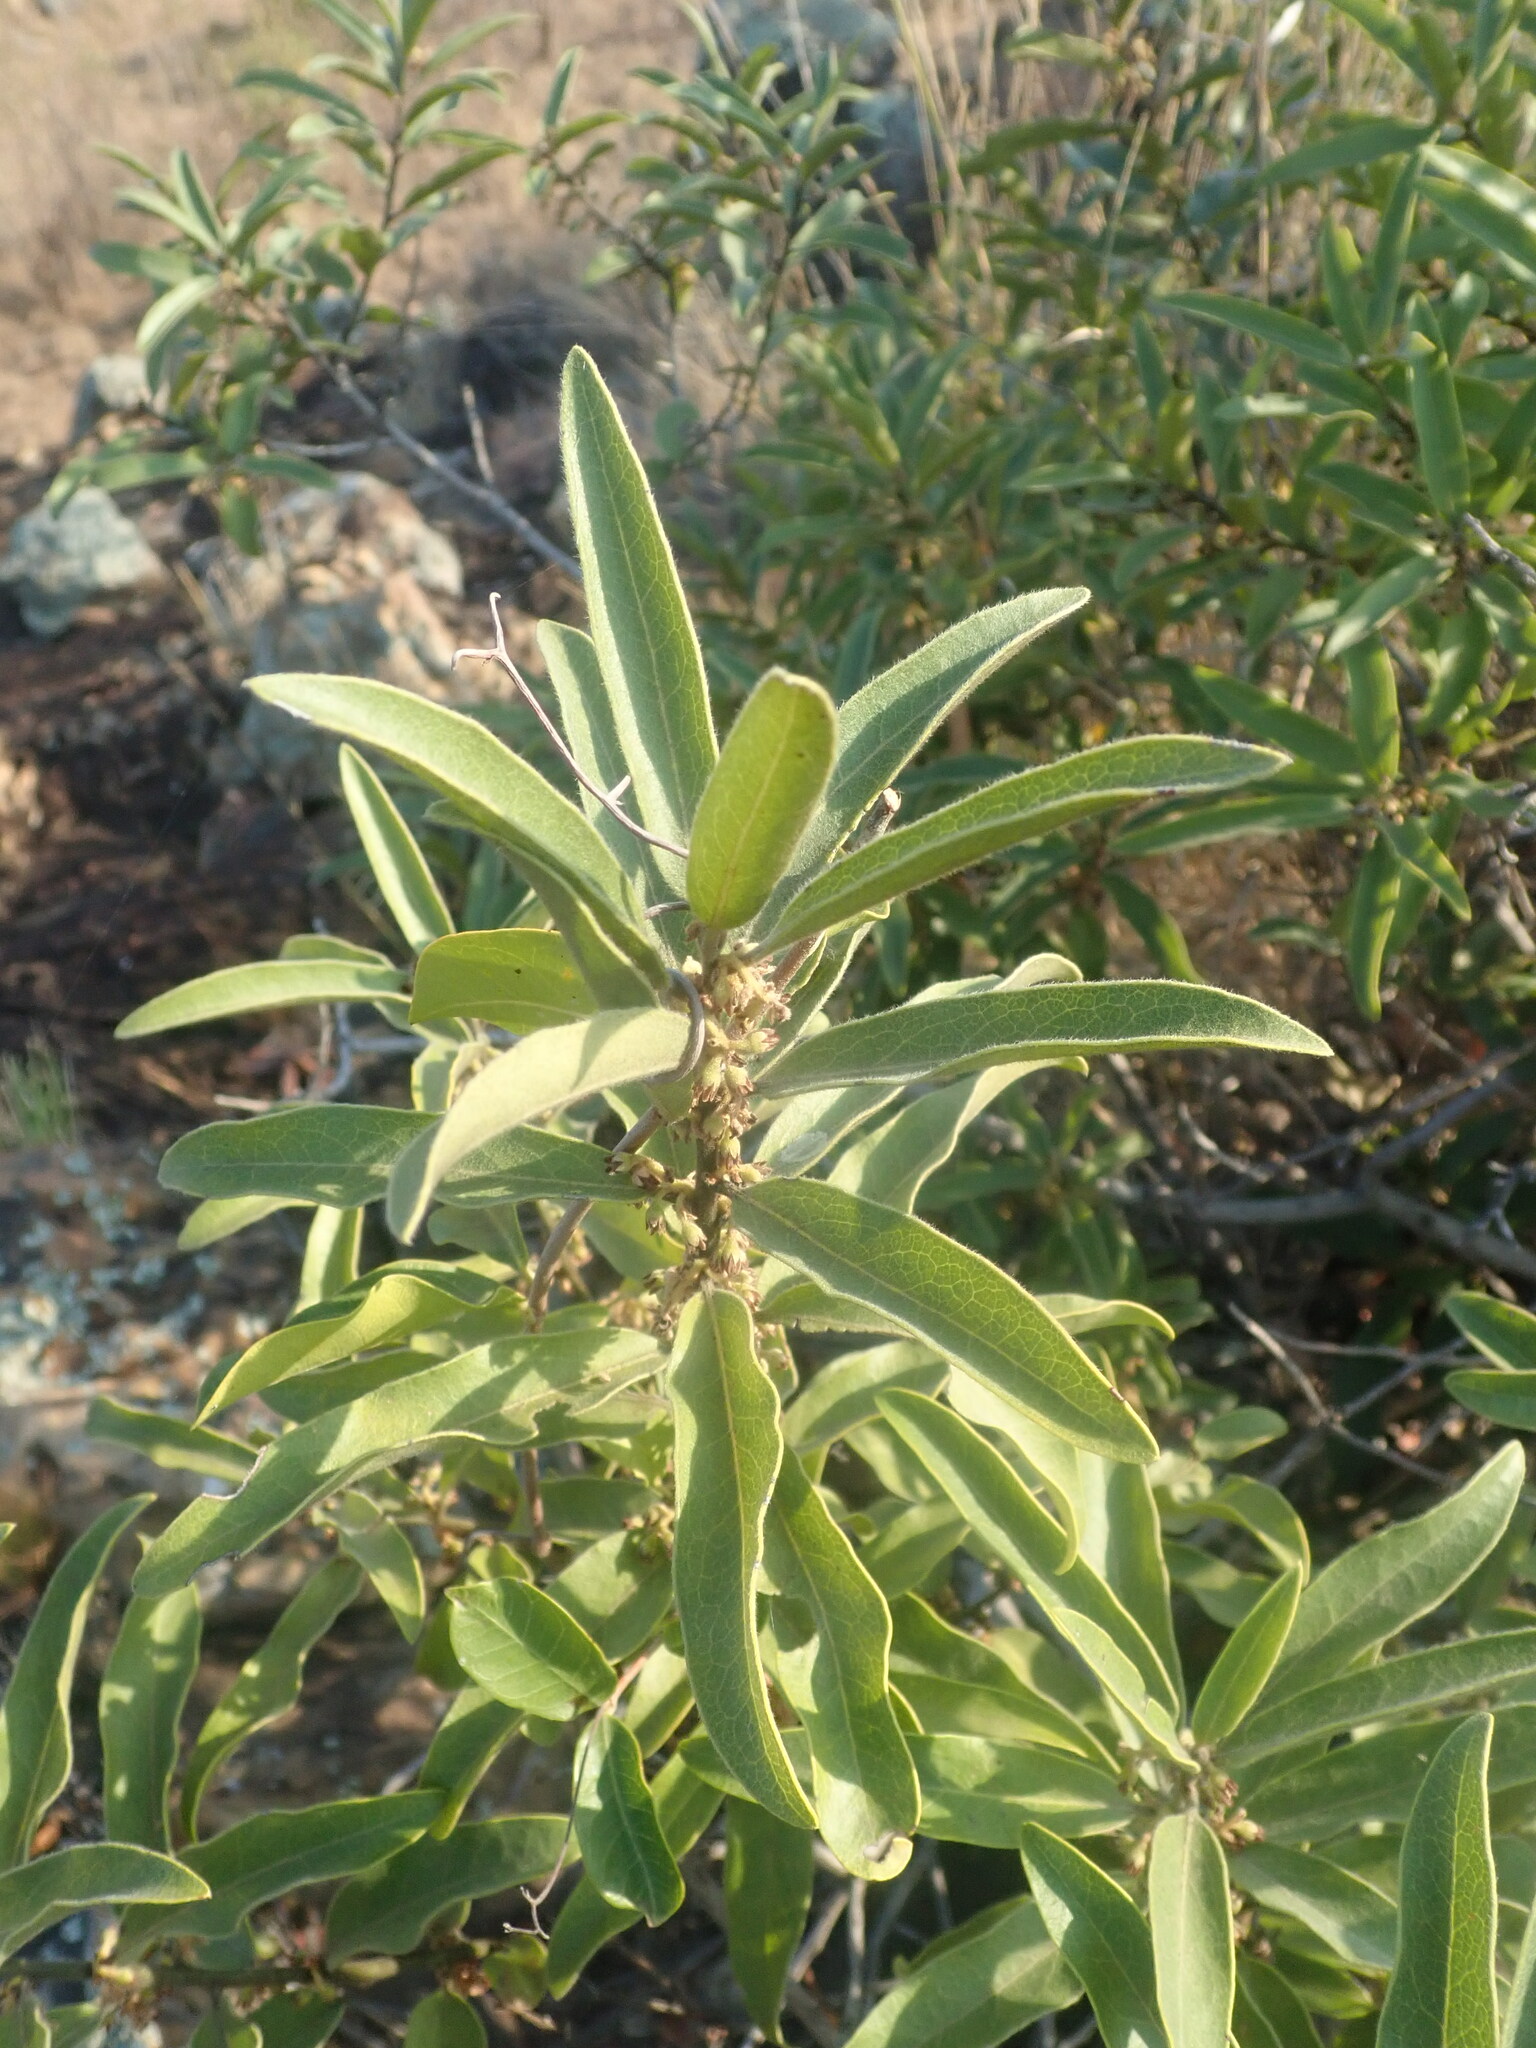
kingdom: Plantae
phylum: Tracheophyta
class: Magnoliopsida
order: Ericales
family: Ebenaceae
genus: Euclea
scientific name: Euclea natalensis
